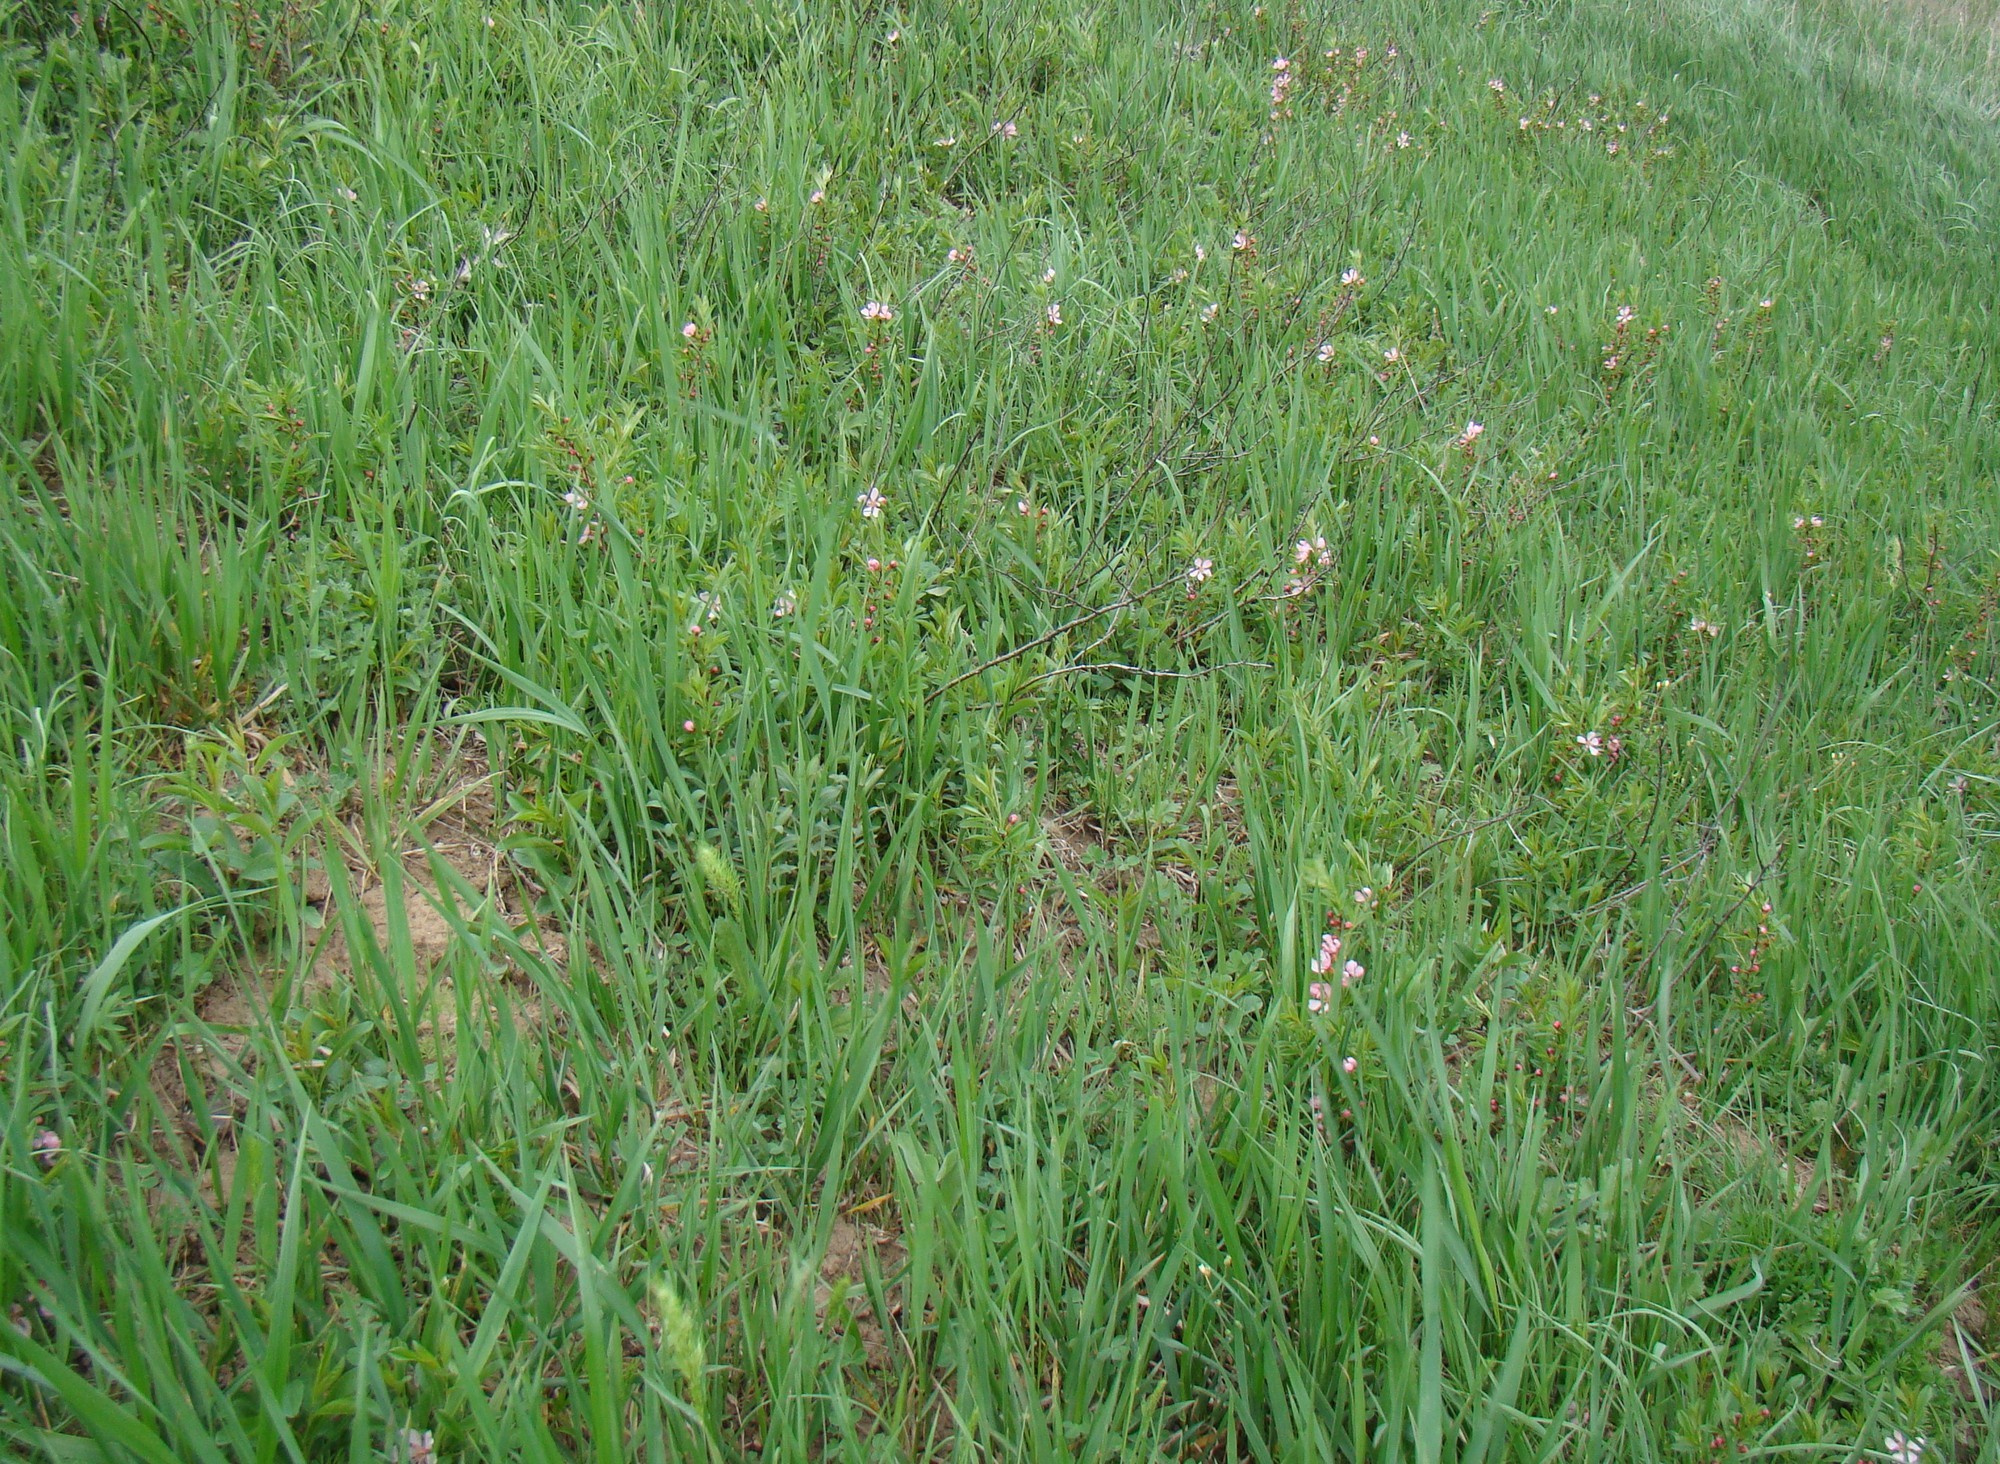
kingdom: Plantae
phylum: Tracheophyta
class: Magnoliopsida
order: Rosales
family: Rosaceae
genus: Prunus
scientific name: Prunus tenella
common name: Dwarf russian almond
